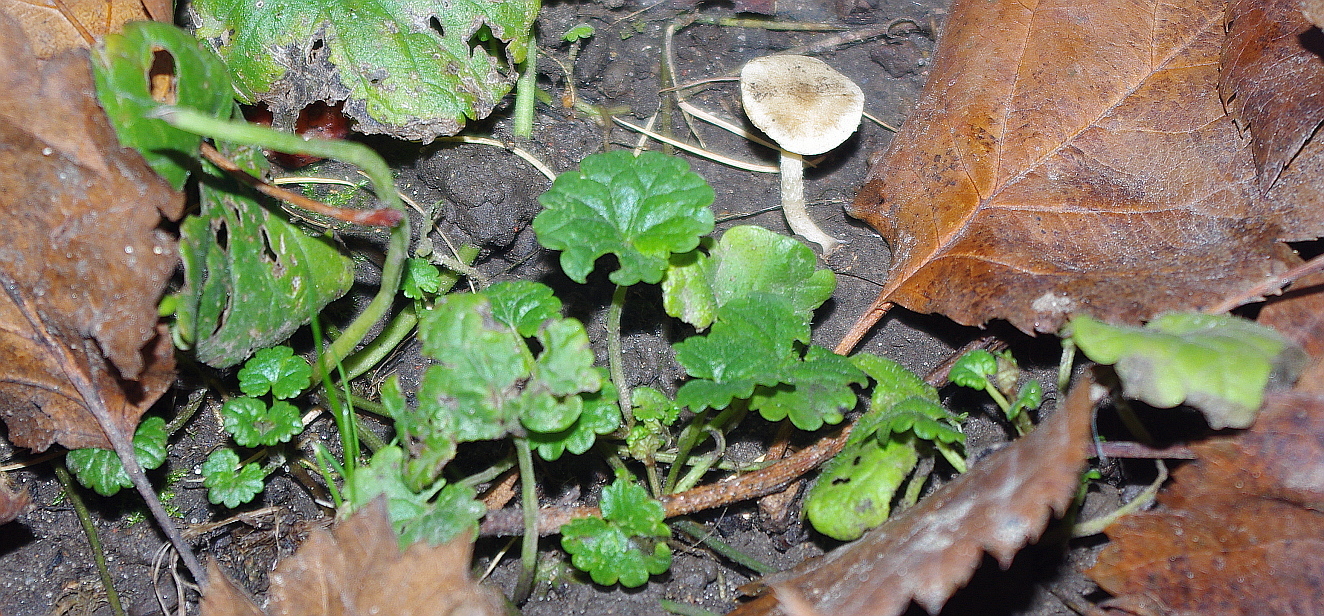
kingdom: Plantae
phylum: Tracheophyta
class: Magnoliopsida
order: Lamiales
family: Lamiaceae
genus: Glechoma
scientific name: Glechoma hederacea
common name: Ground ivy
